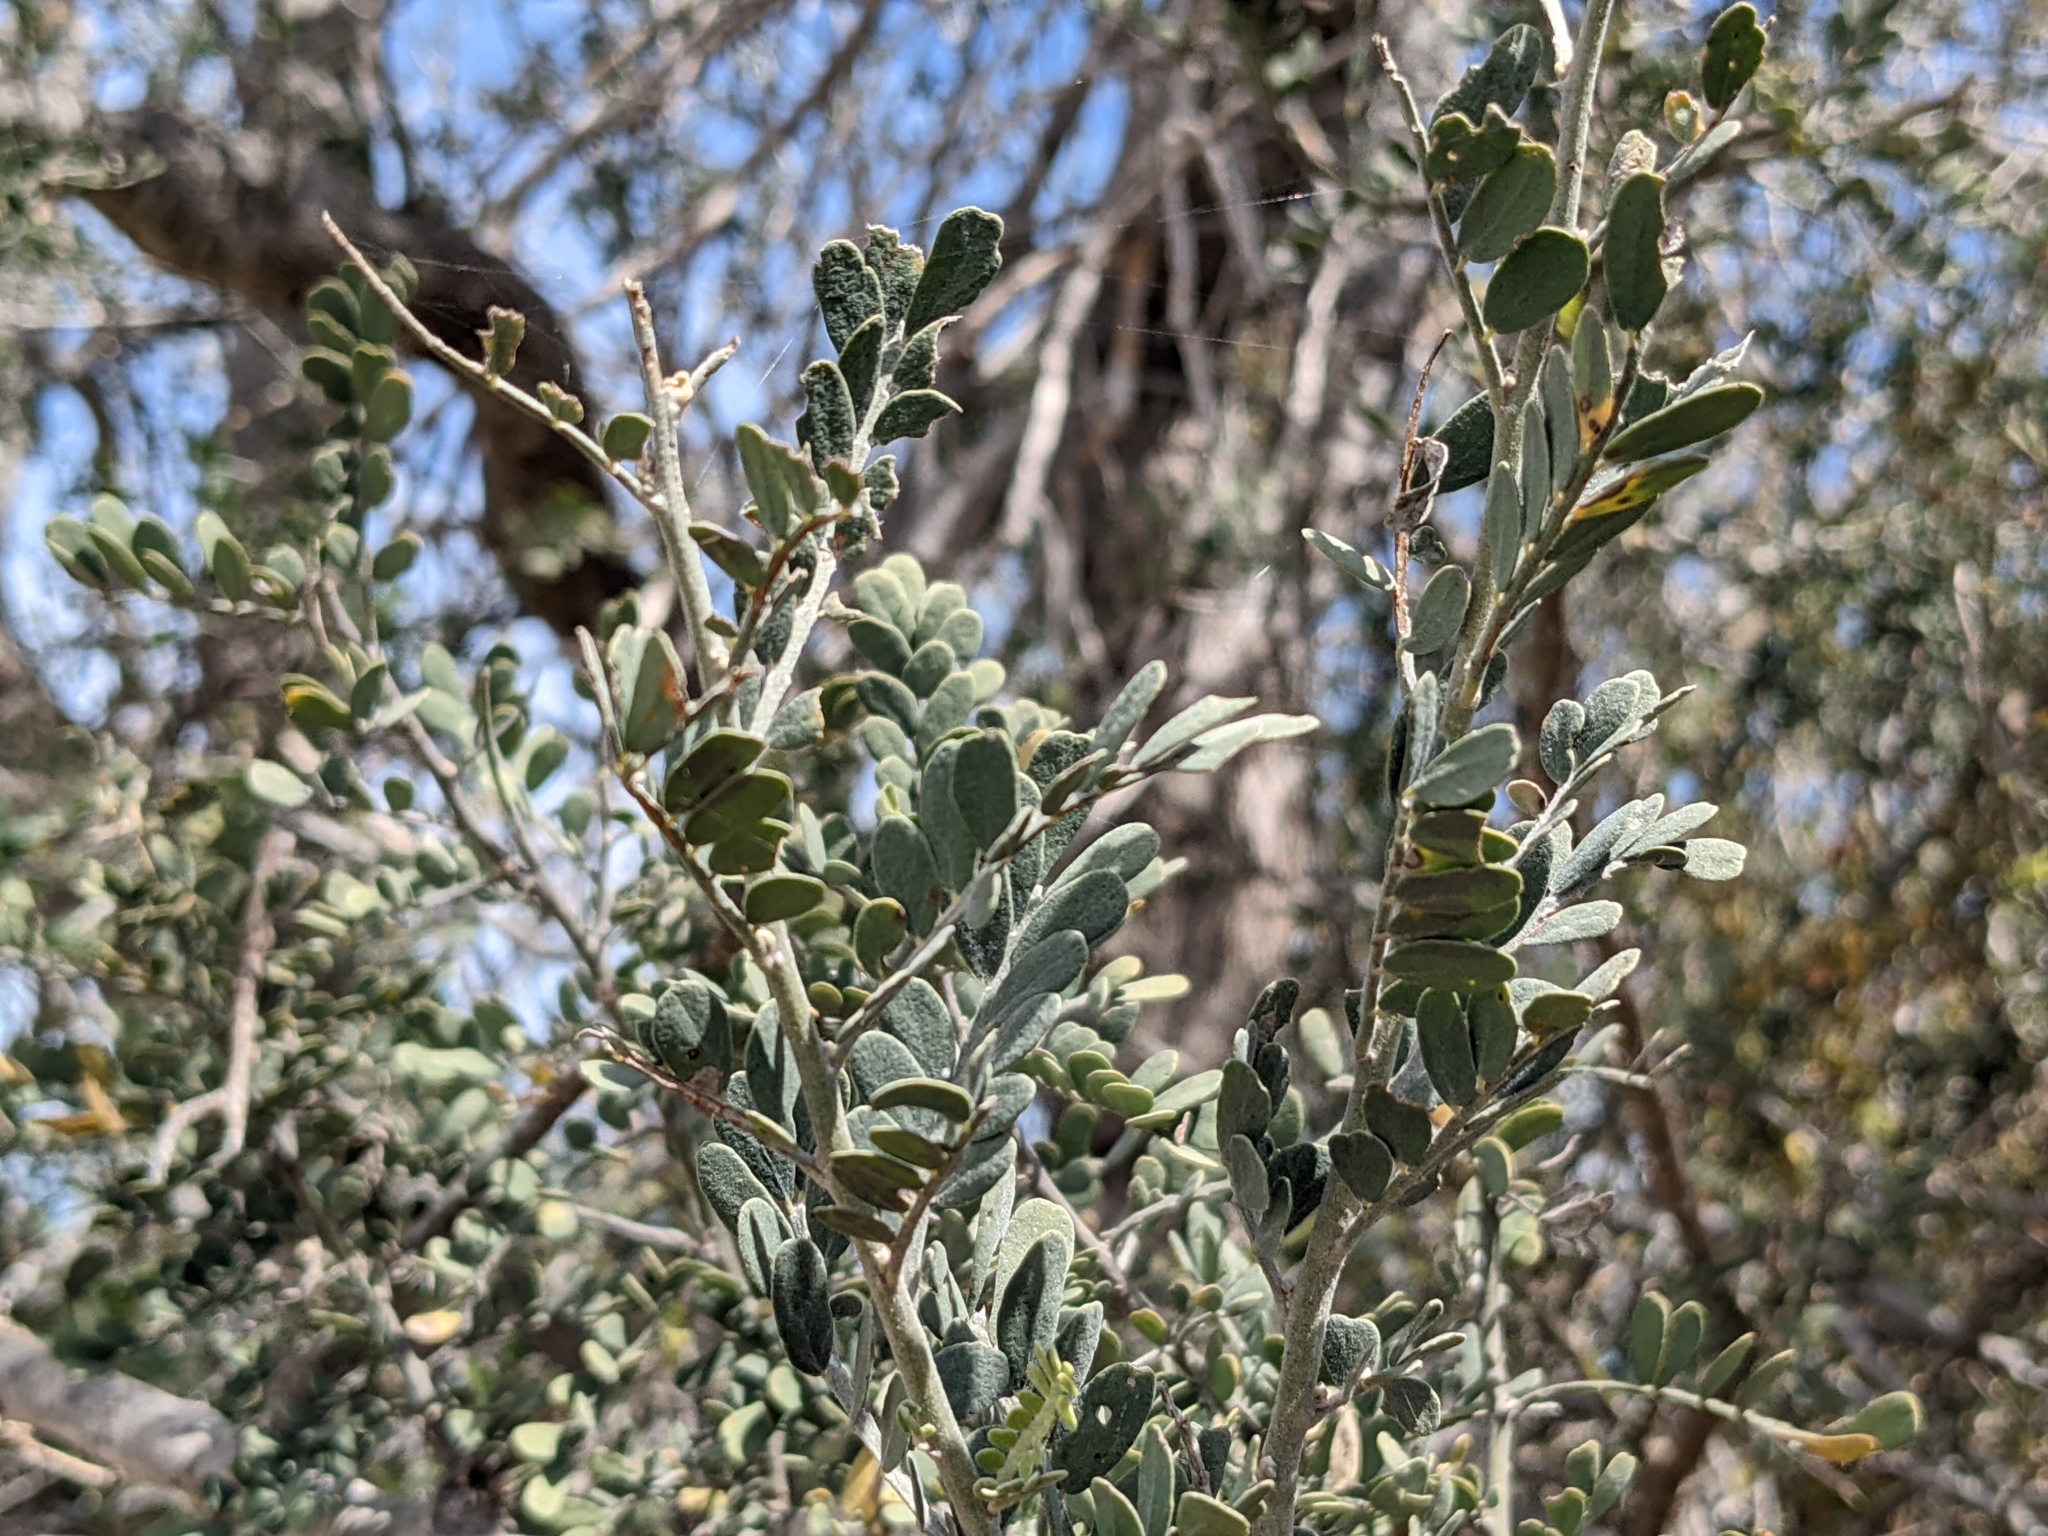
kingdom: Plantae
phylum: Tracheophyta
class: Magnoliopsida
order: Fabales
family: Fabaceae
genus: Olneya
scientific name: Olneya tesota
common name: Desert ironwood
